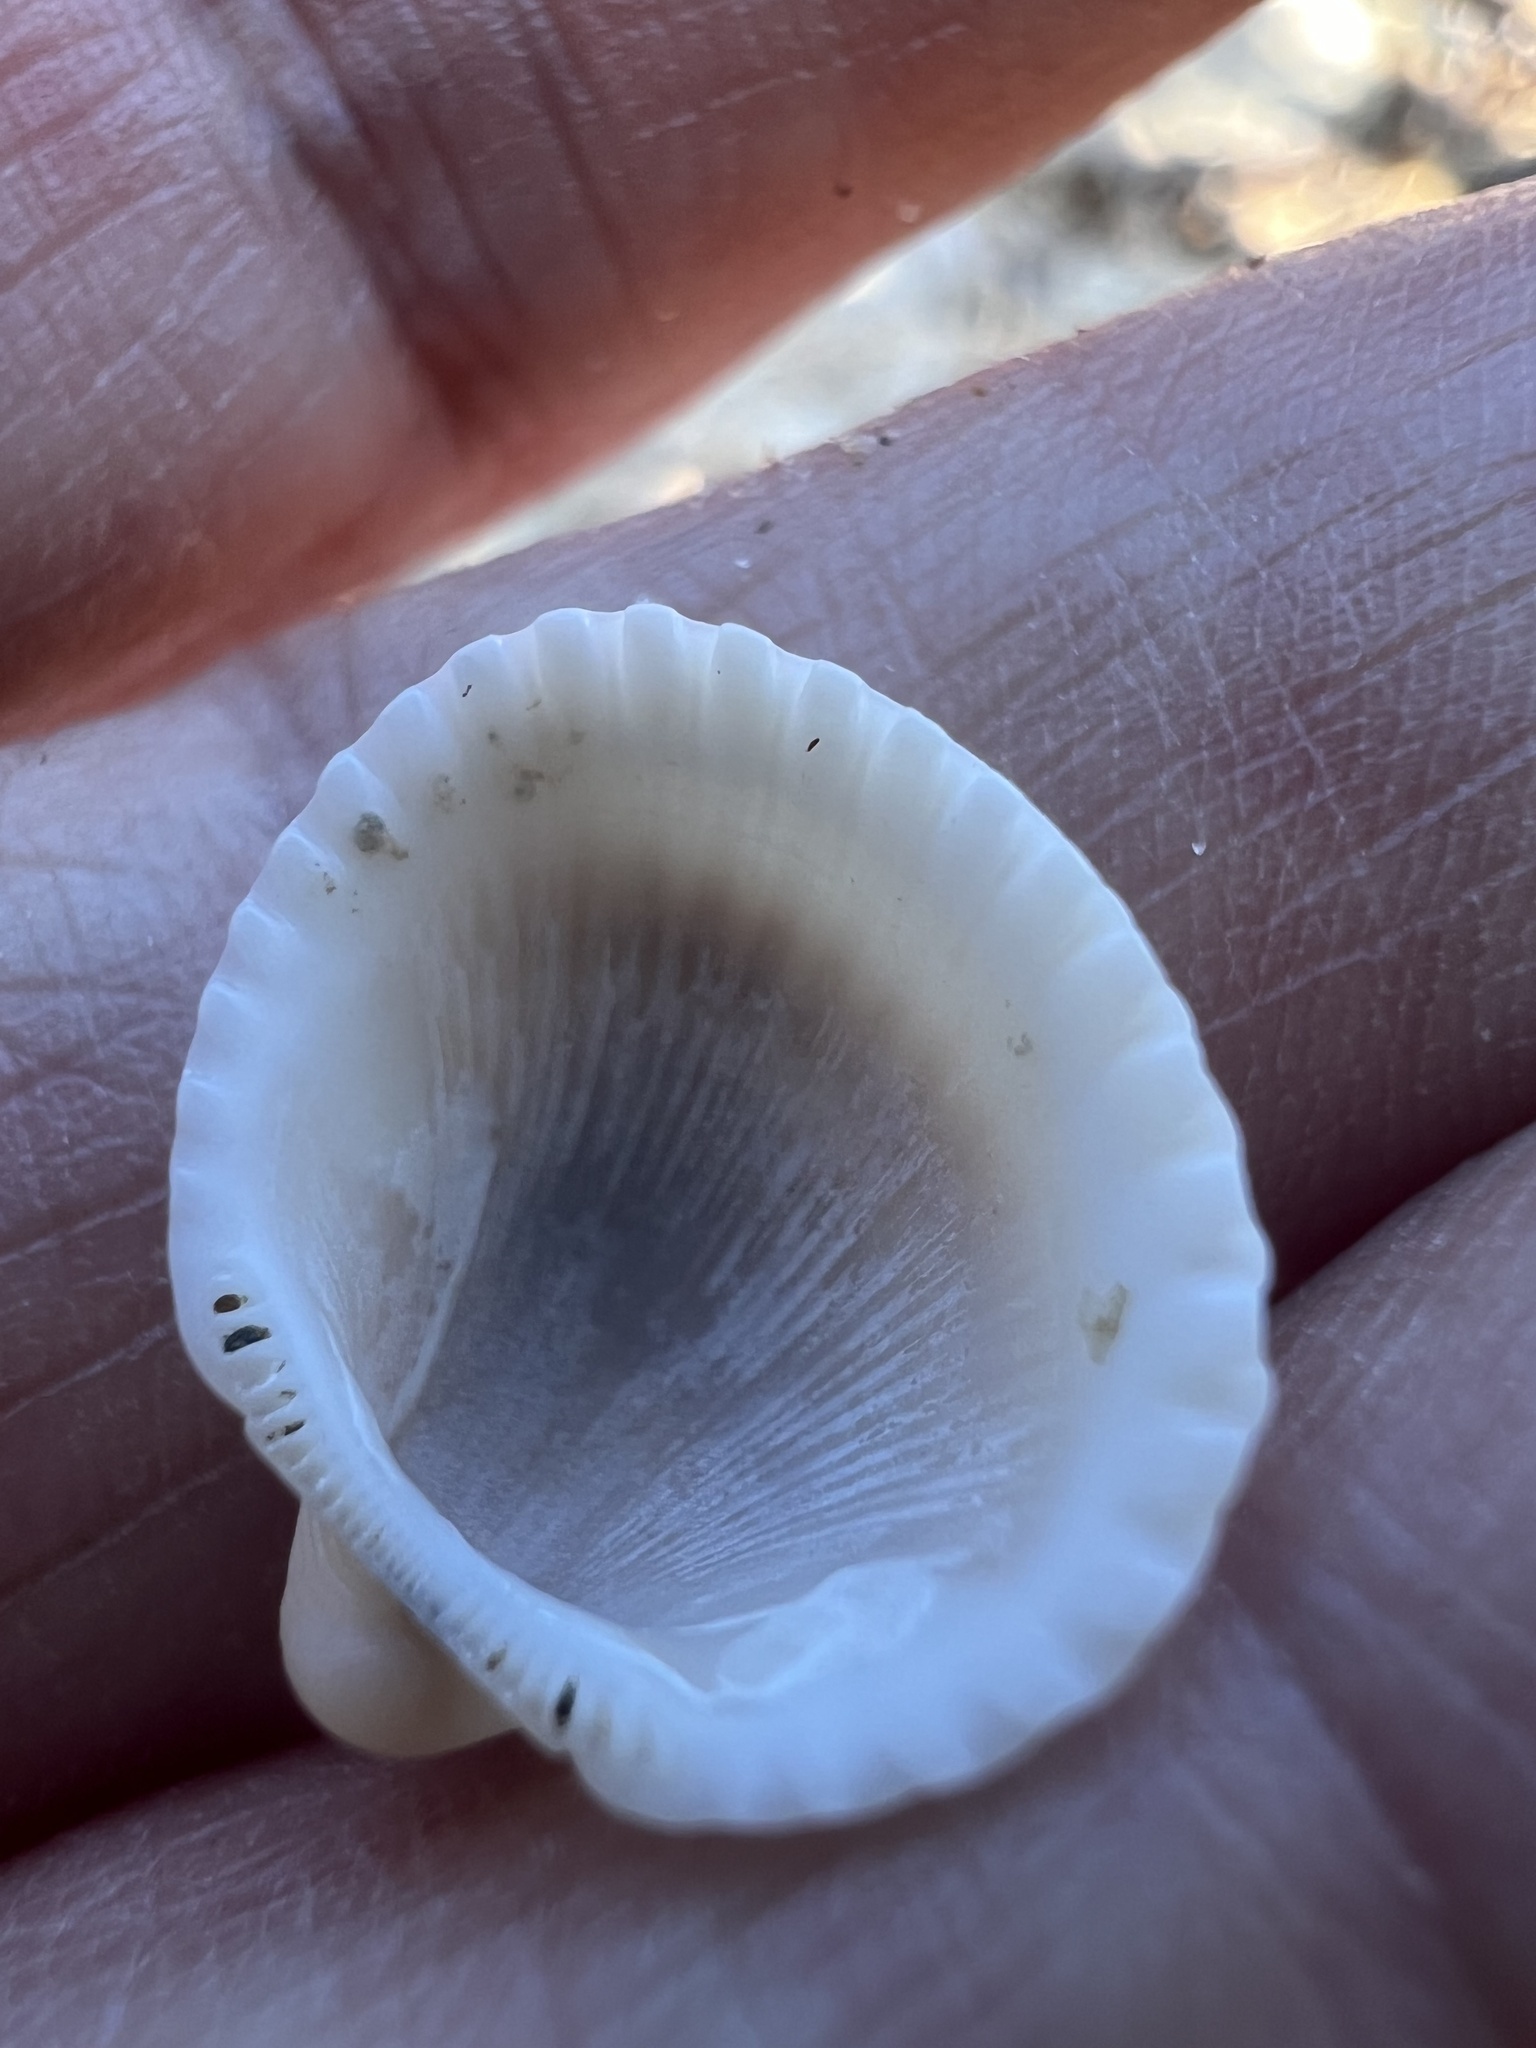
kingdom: Animalia
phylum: Mollusca
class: Bivalvia
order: Arcida
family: Arcidae
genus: Anadara
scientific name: Anadara pilula
